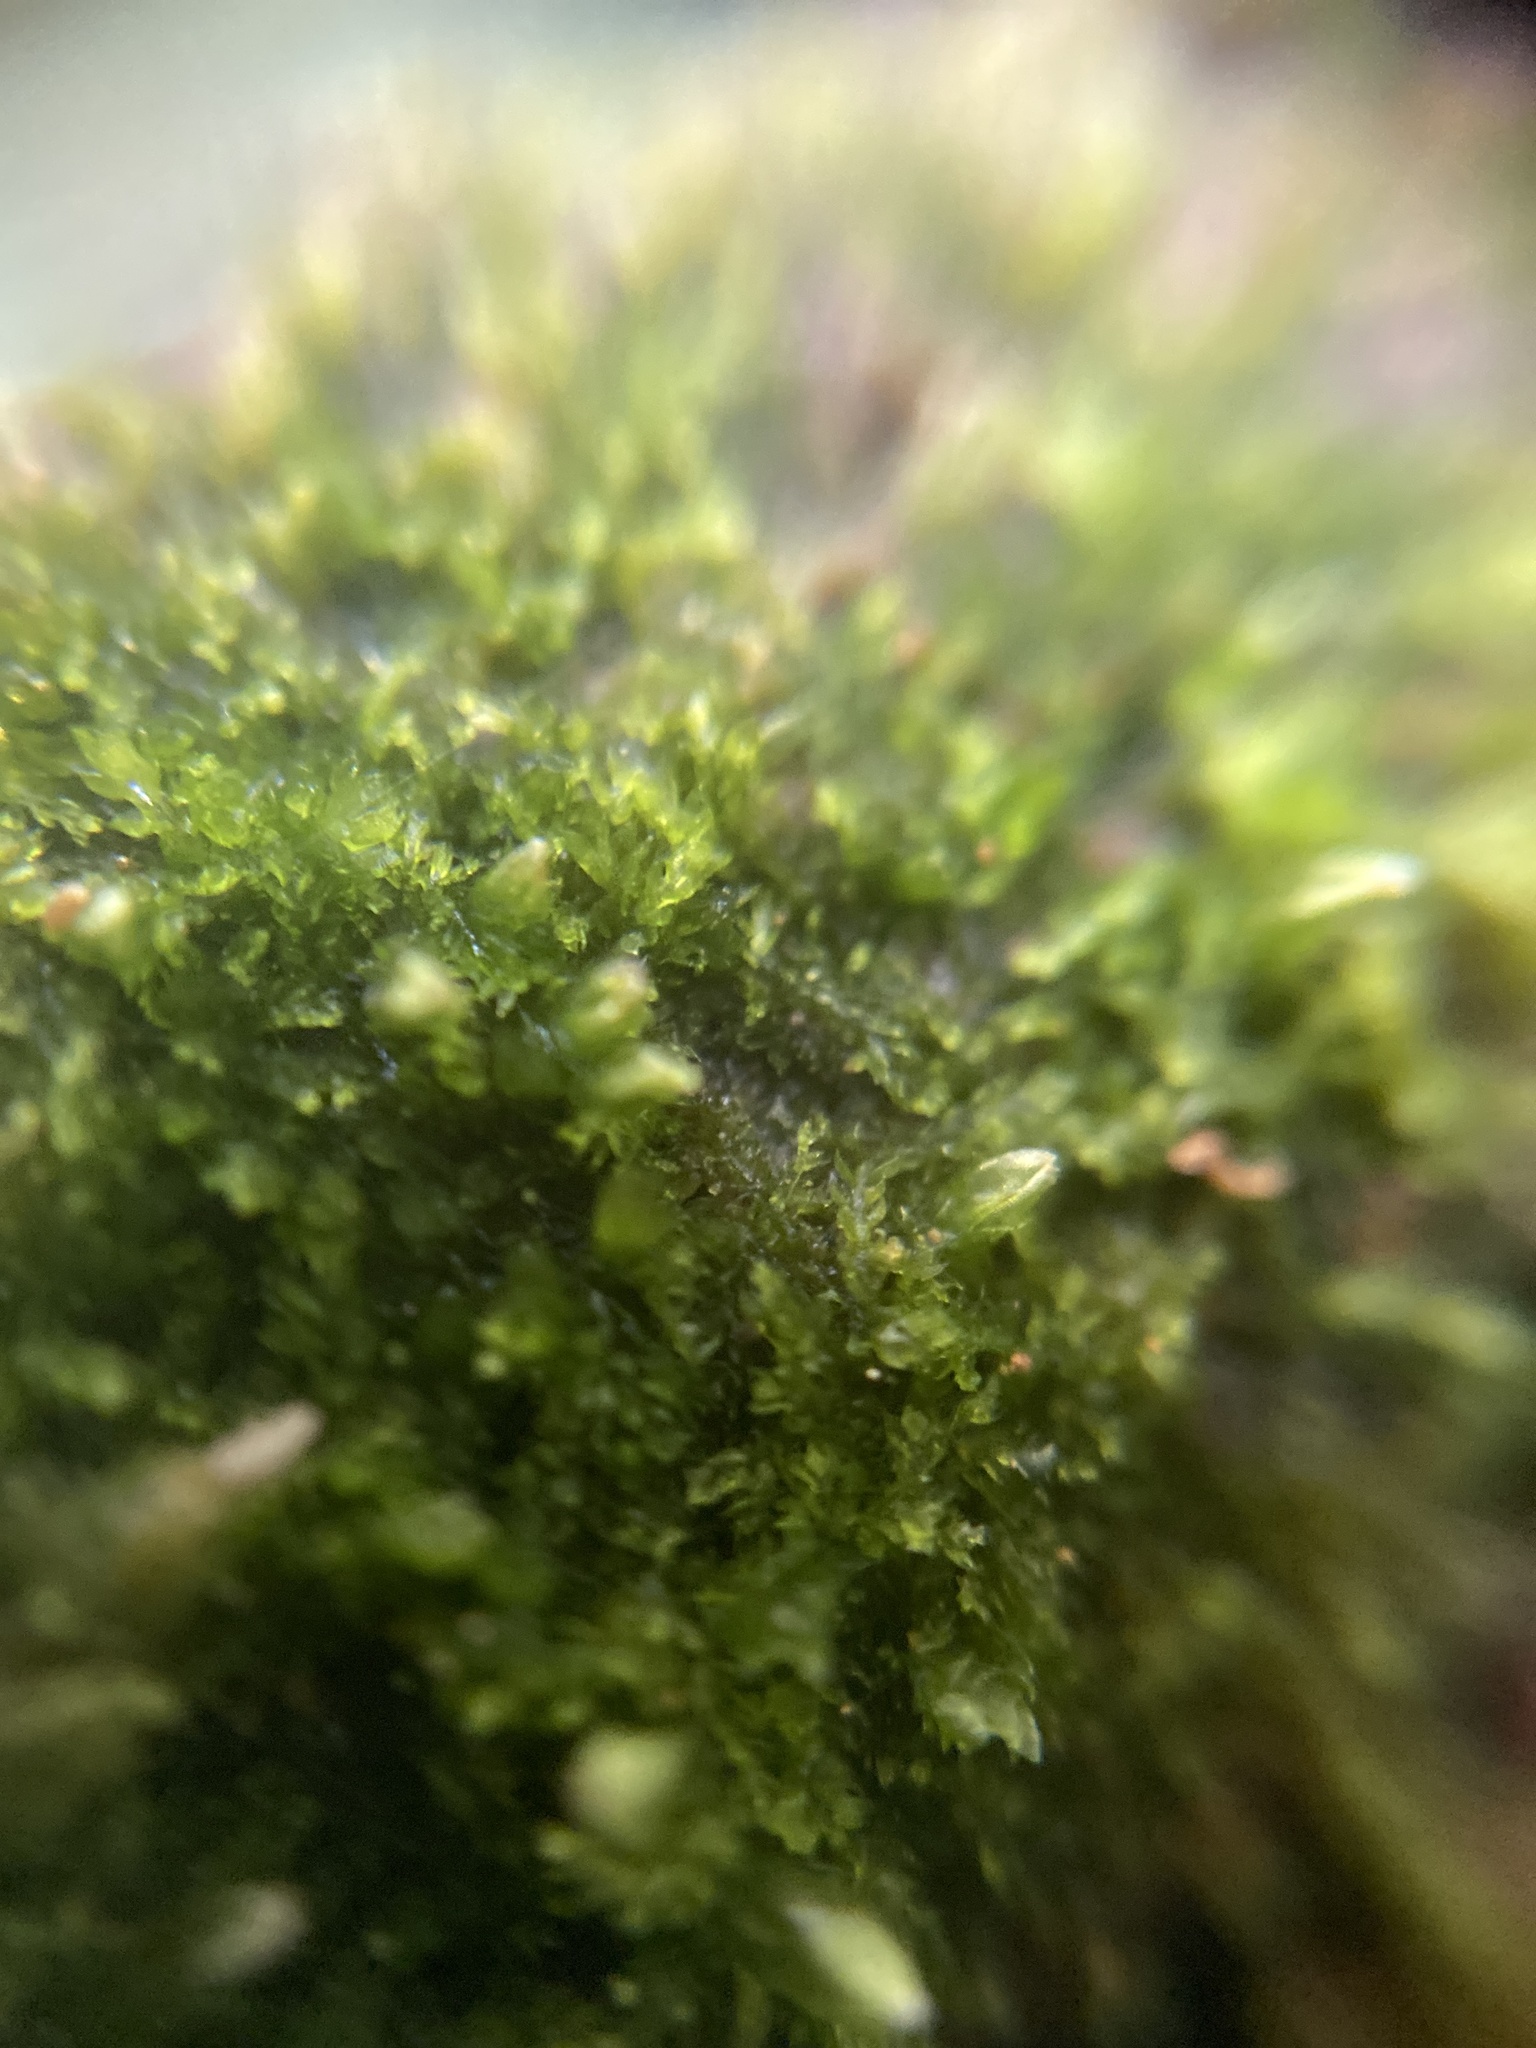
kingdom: Plantae
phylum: Marchantiophyta
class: Jungermanniopsida
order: Jungermanniales
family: Cephaloziaceae
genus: Cephalozia
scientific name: Cephalozia bicuspidata
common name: Two-horned pincerwort
